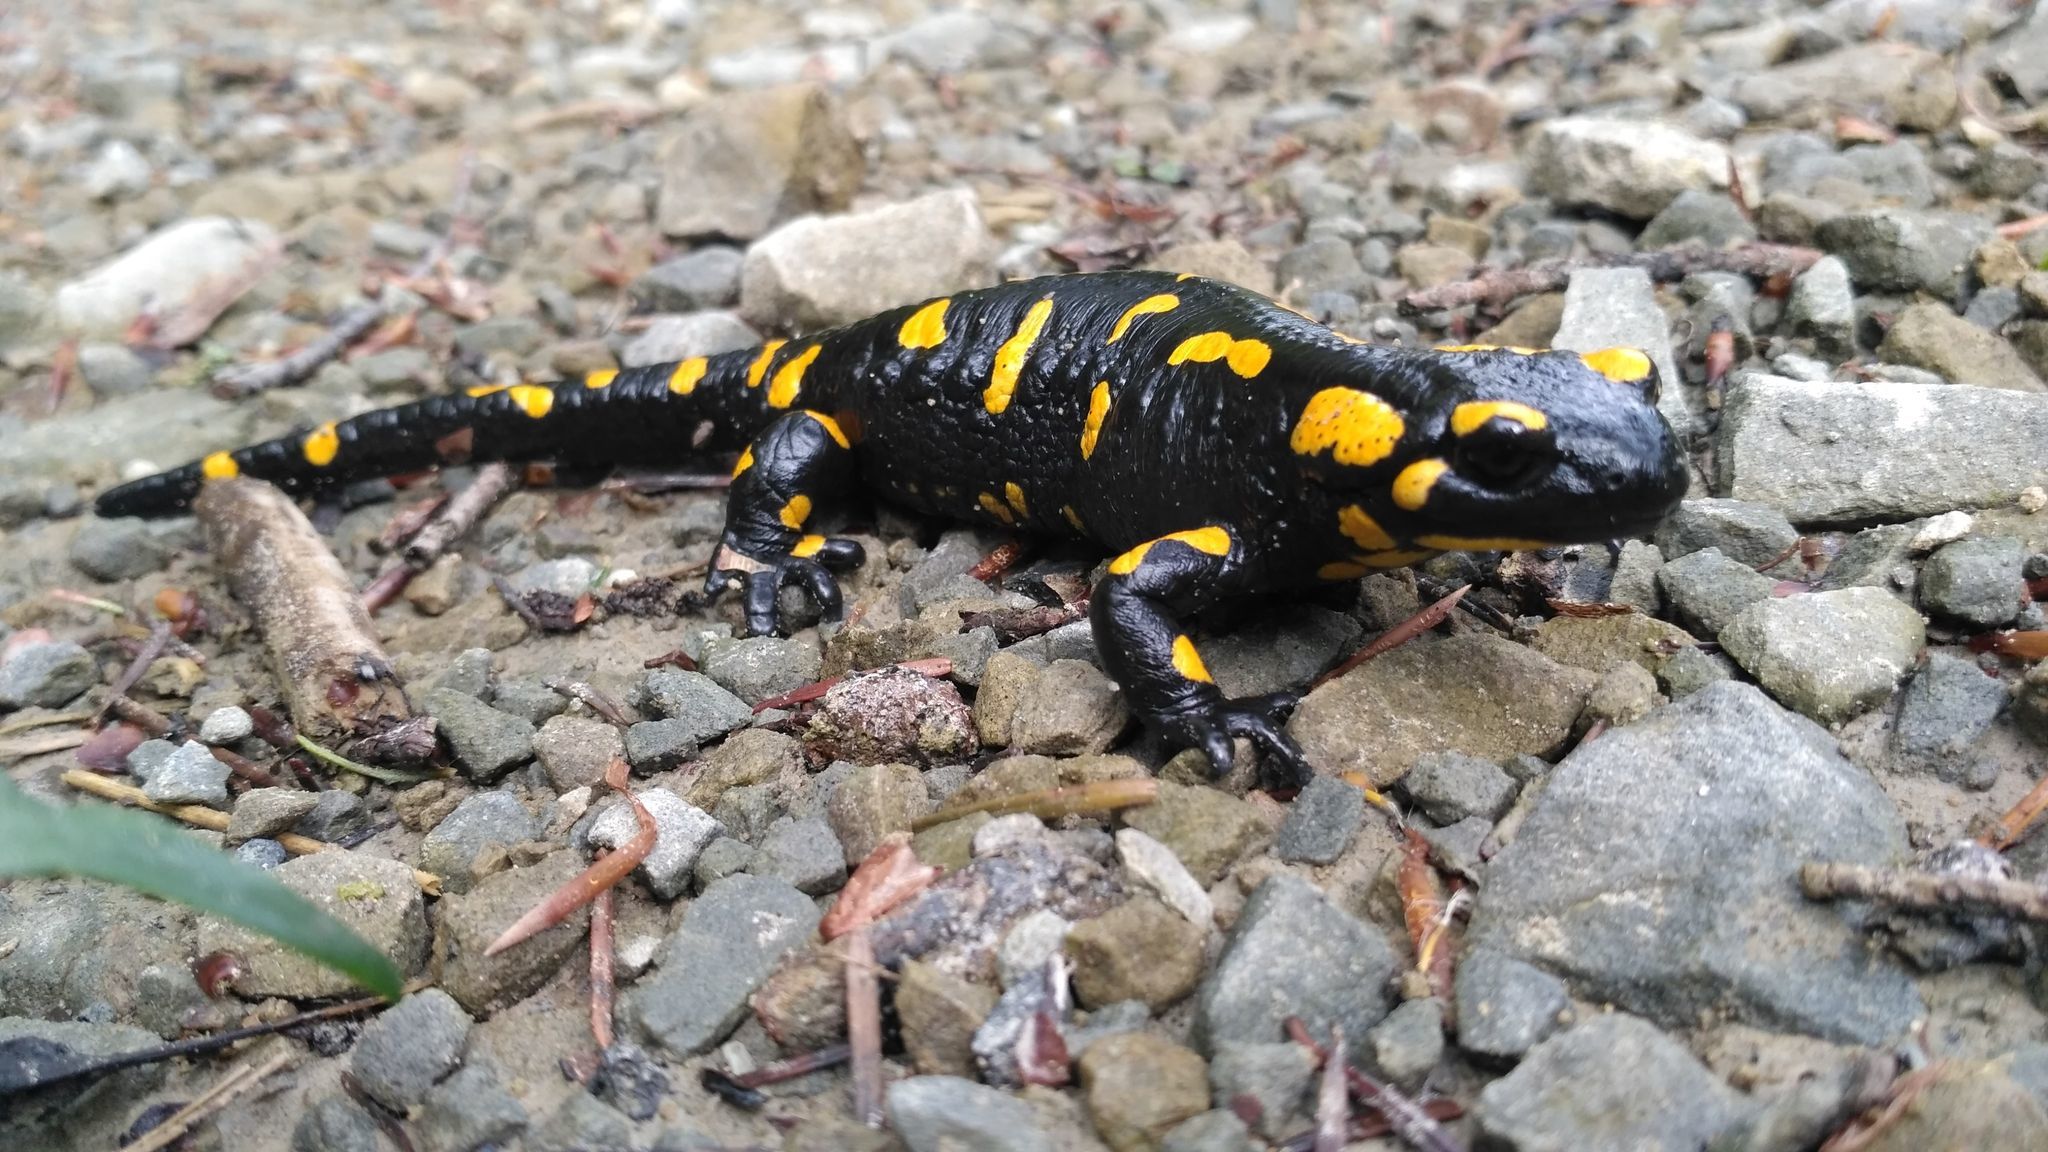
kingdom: Animalia
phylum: Chordata
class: Amphibia
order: Caudata
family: Salamandridae
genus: Salamandra
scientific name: Salamandra salamandra
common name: Fire salamander
